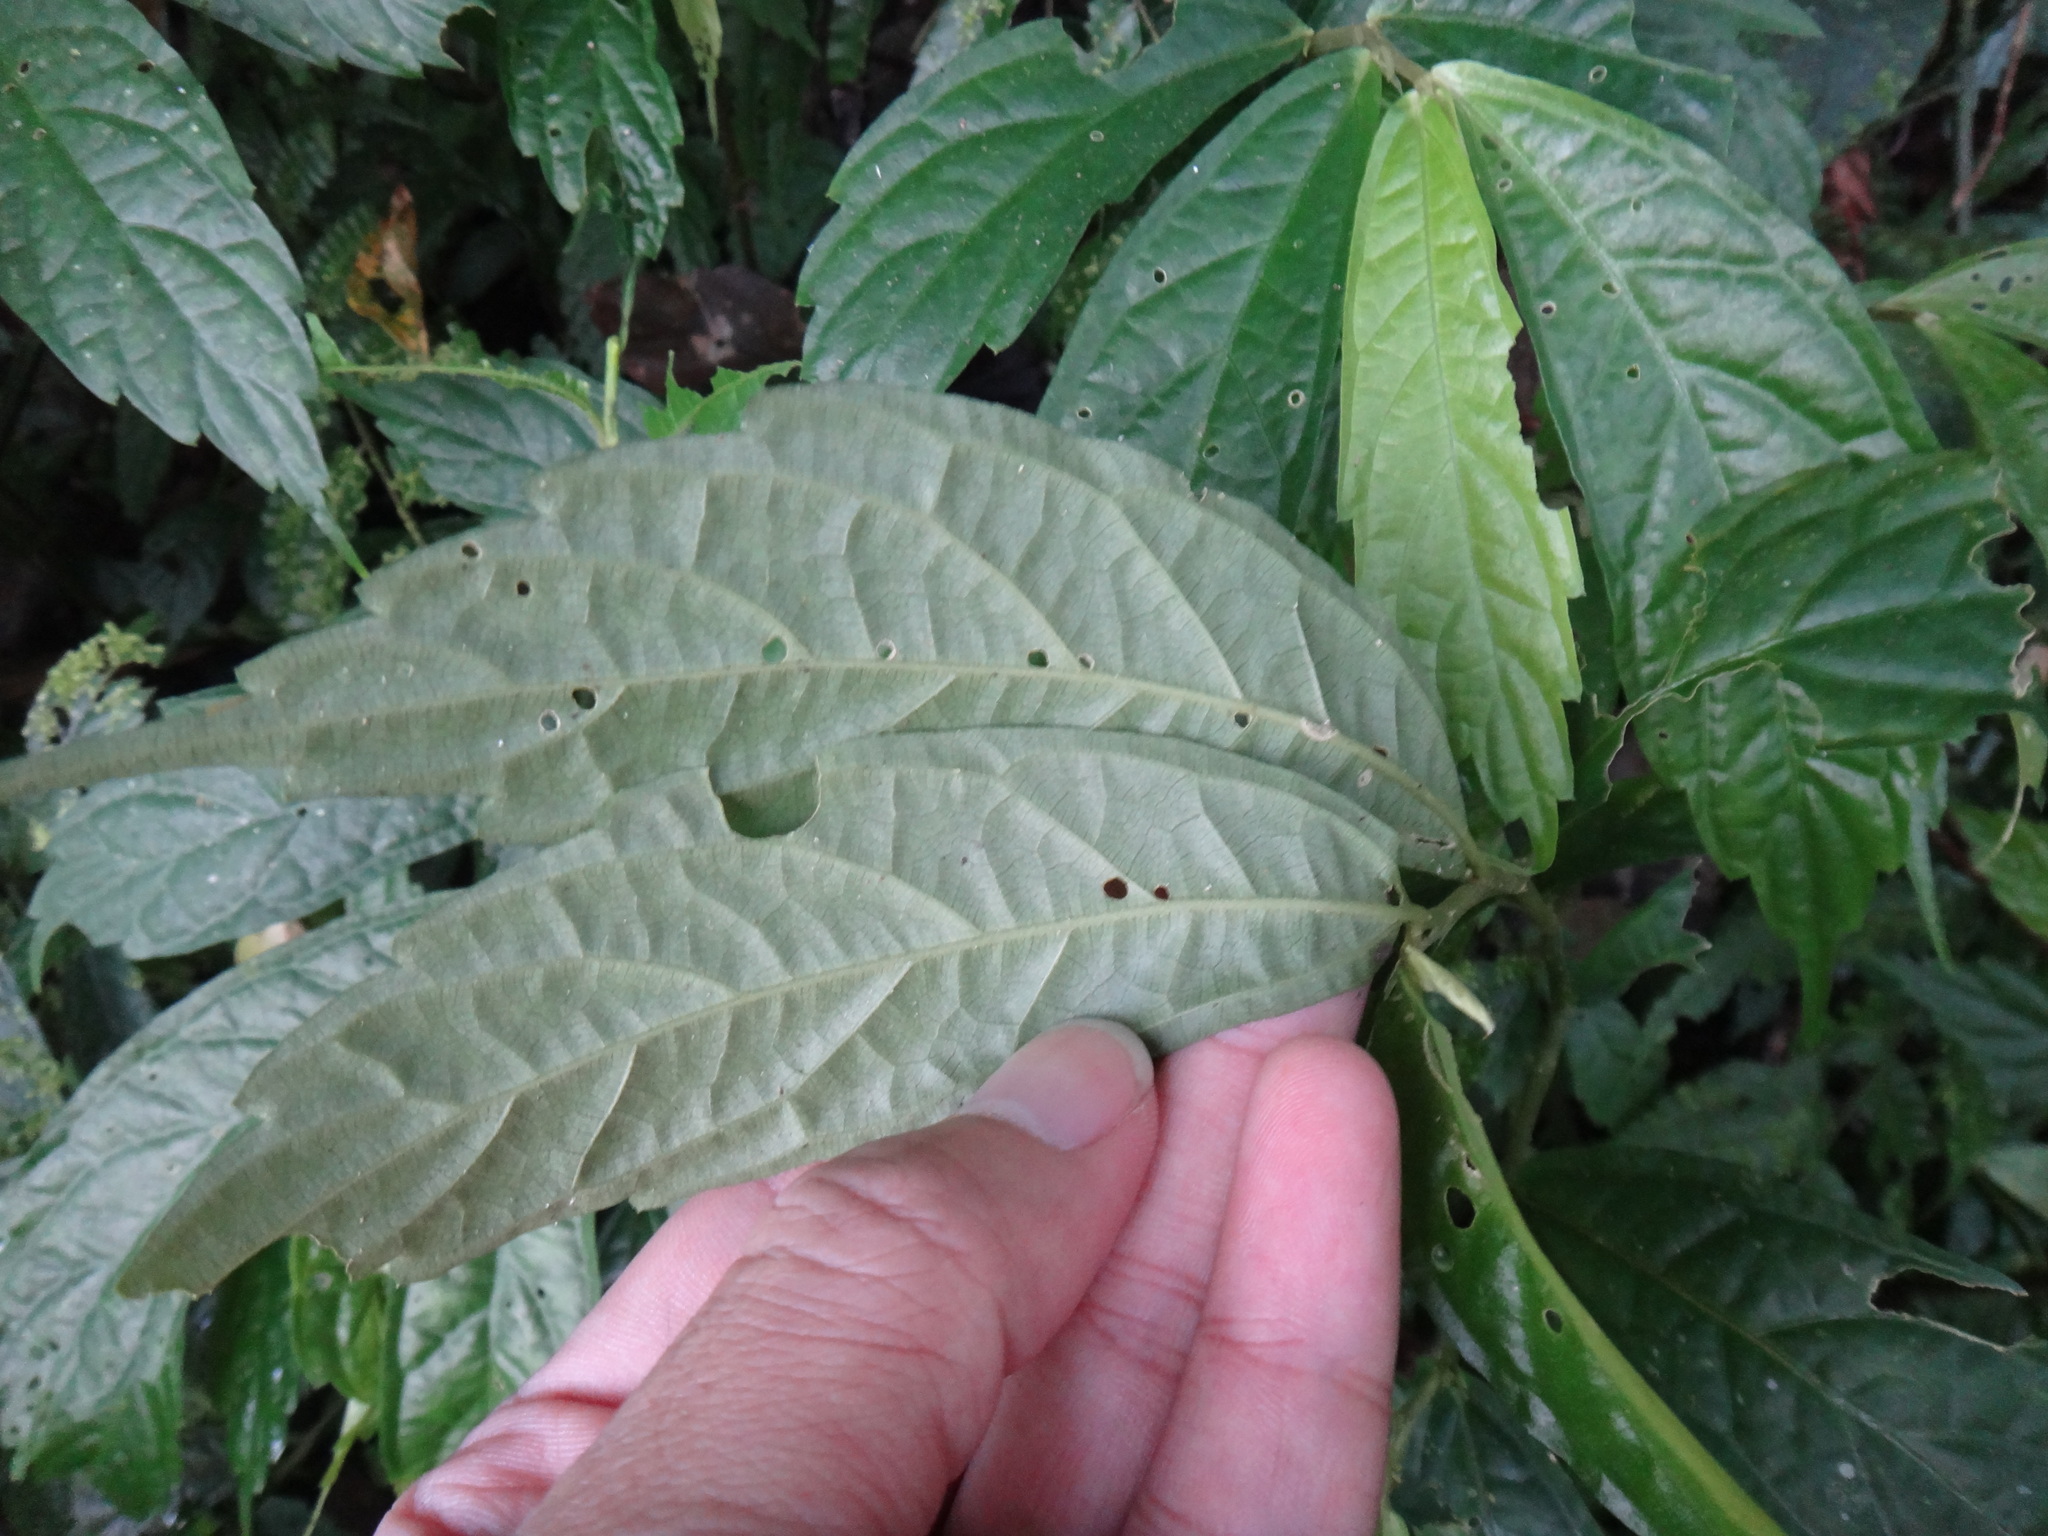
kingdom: Plantae
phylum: Tracheophyta
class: Magnoliopsida
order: Rosales
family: Urticaceae
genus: Elatostema
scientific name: Elatostema lineolatum
